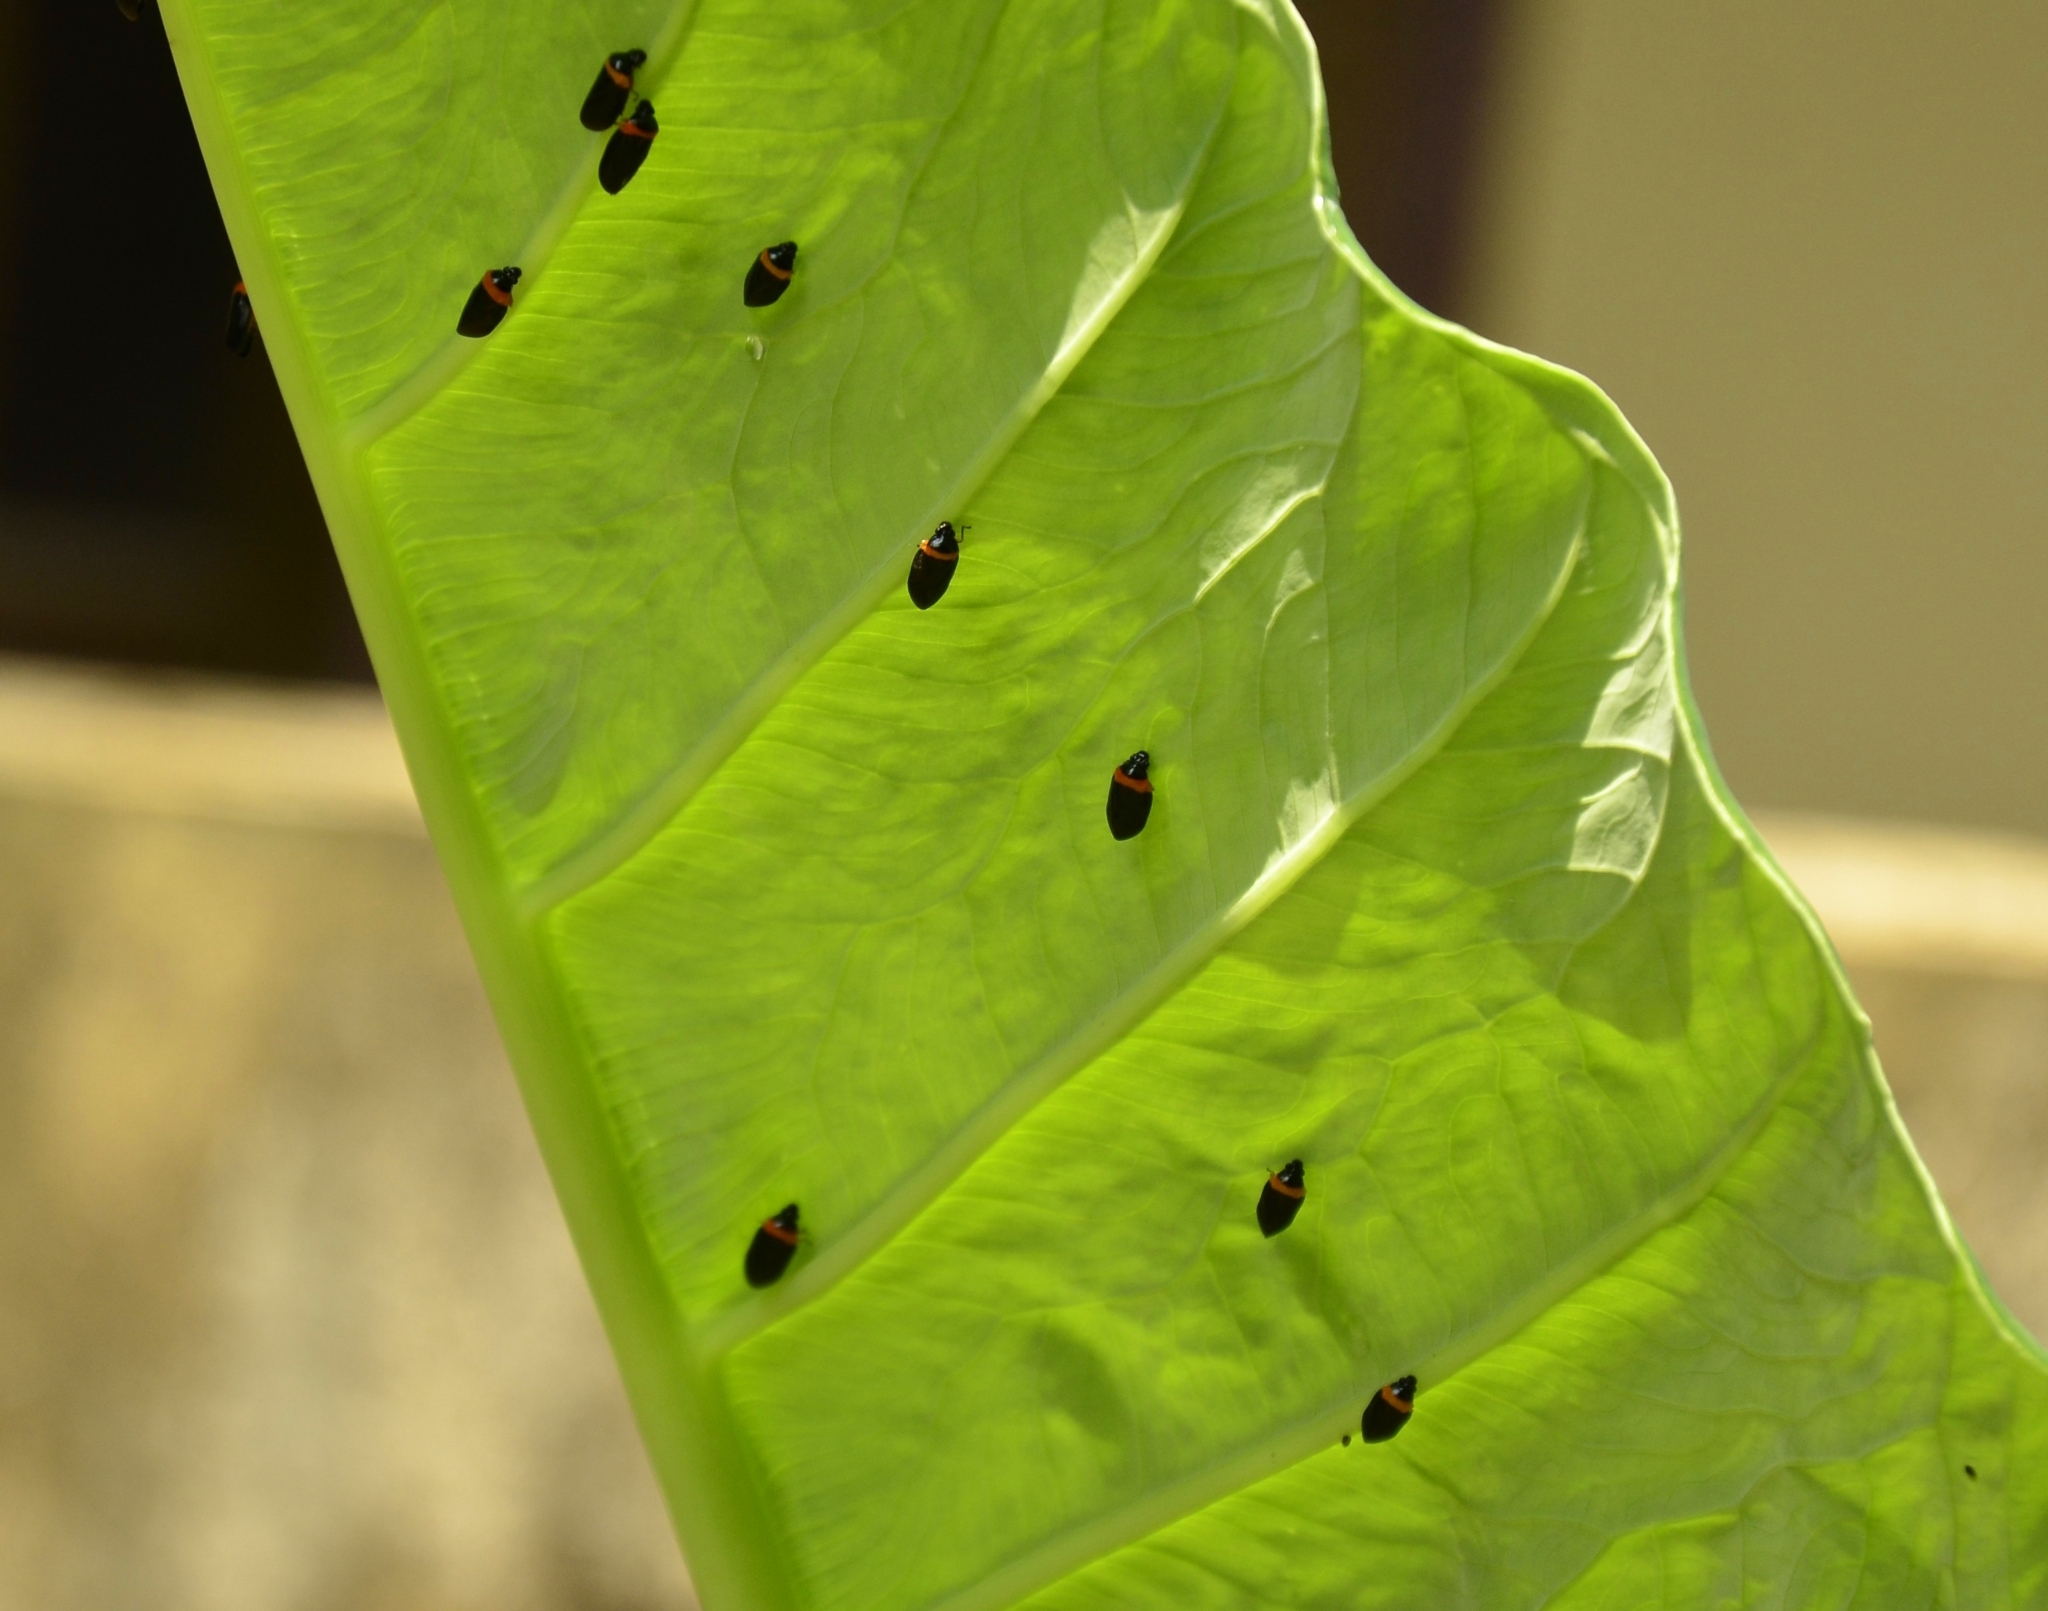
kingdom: Animalia
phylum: Arthropoda
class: Insecta
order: Hemiptera
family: Cercopidae
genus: Phymatostetha
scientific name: Phymatostetha deschampsi
